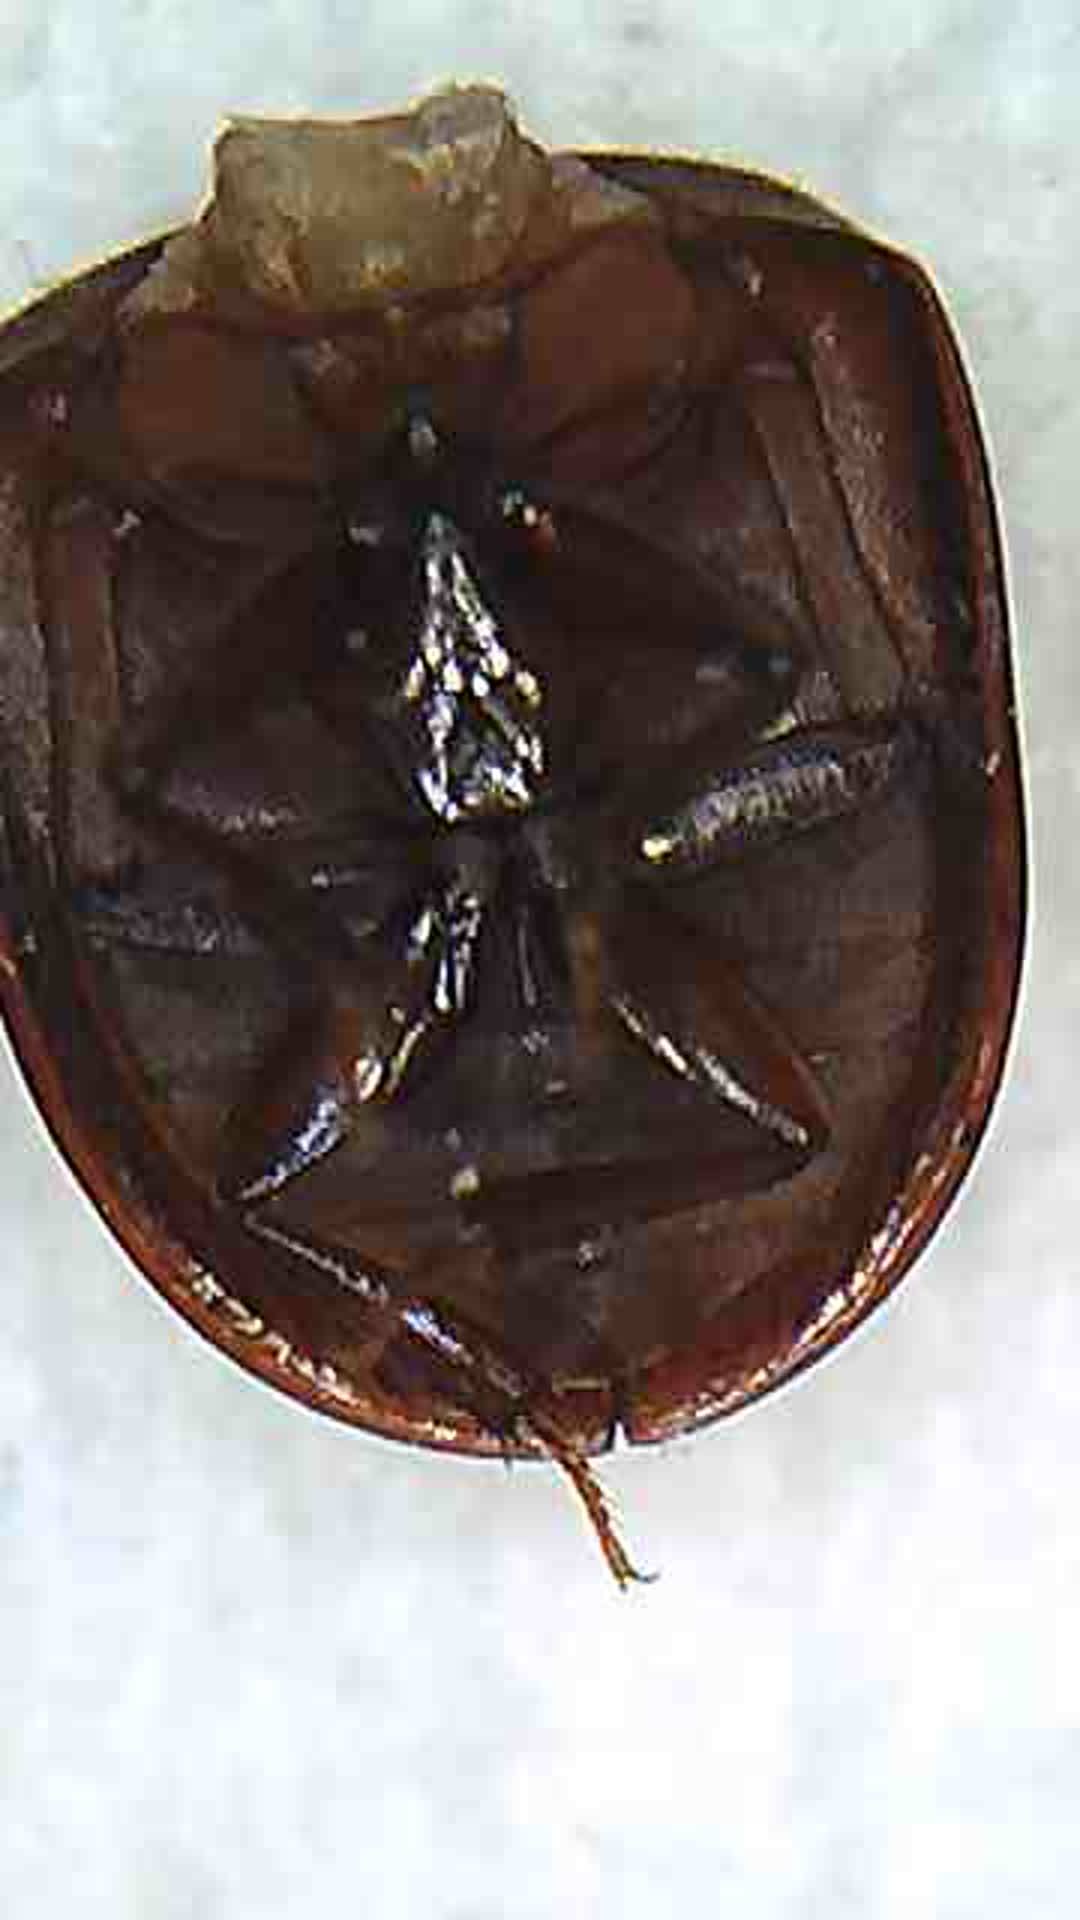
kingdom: Animalia
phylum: Arthropoda
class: Insecta
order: Coleoptera
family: Hydrophilidae
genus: Dactylosternum
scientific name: Dactylosternum marginale
